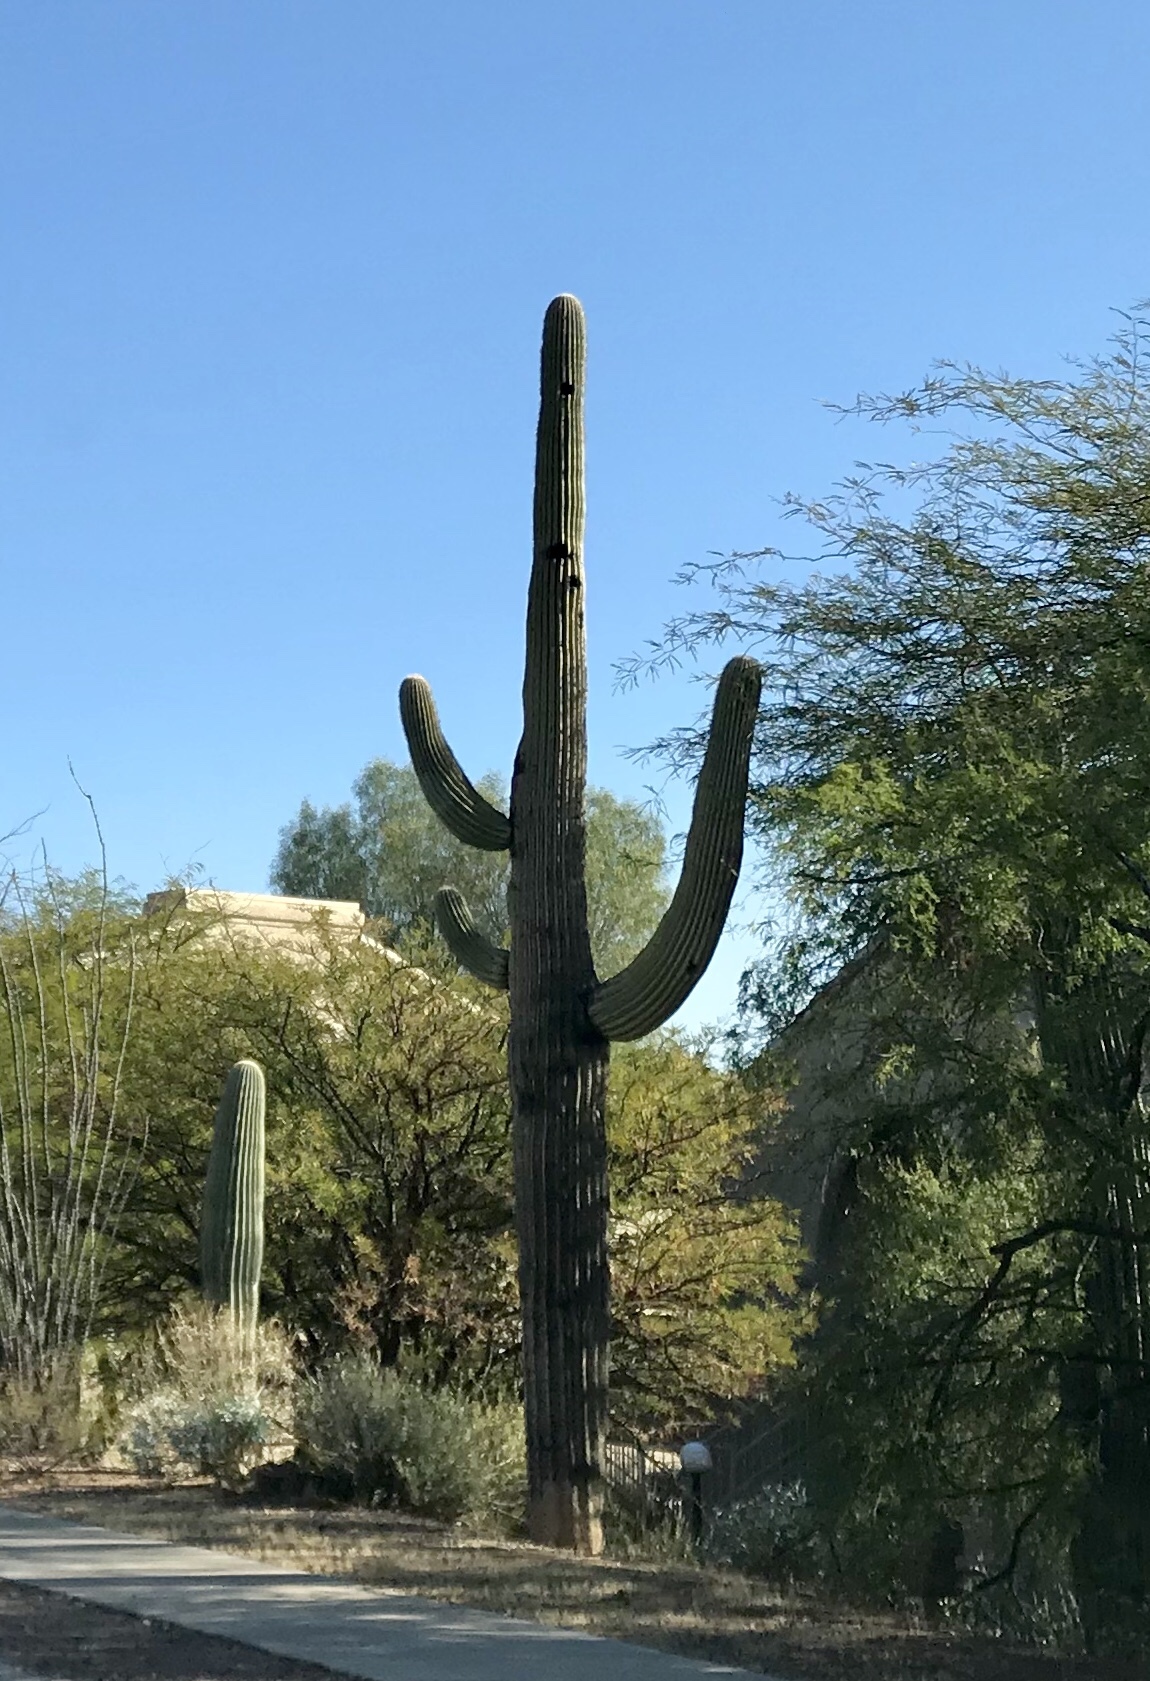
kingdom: Plantae
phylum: Tracheophyta
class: Magnoliopsida
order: Caryophyllales
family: Cactaceae
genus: Carnegiea
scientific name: Carnegiea gigantea
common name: Saguaro
